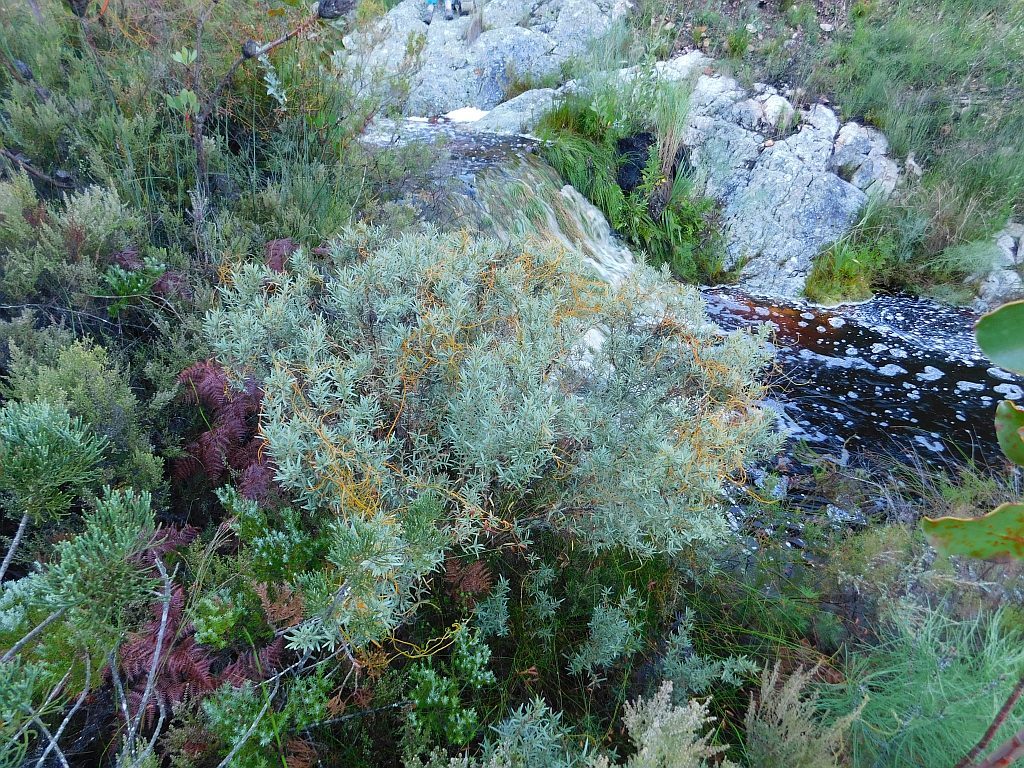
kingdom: Plantae
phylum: Tracheophyta
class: Magnoliopsida
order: Laurales
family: Lauraceae
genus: Cassytha
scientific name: Cassytha ciliolata
